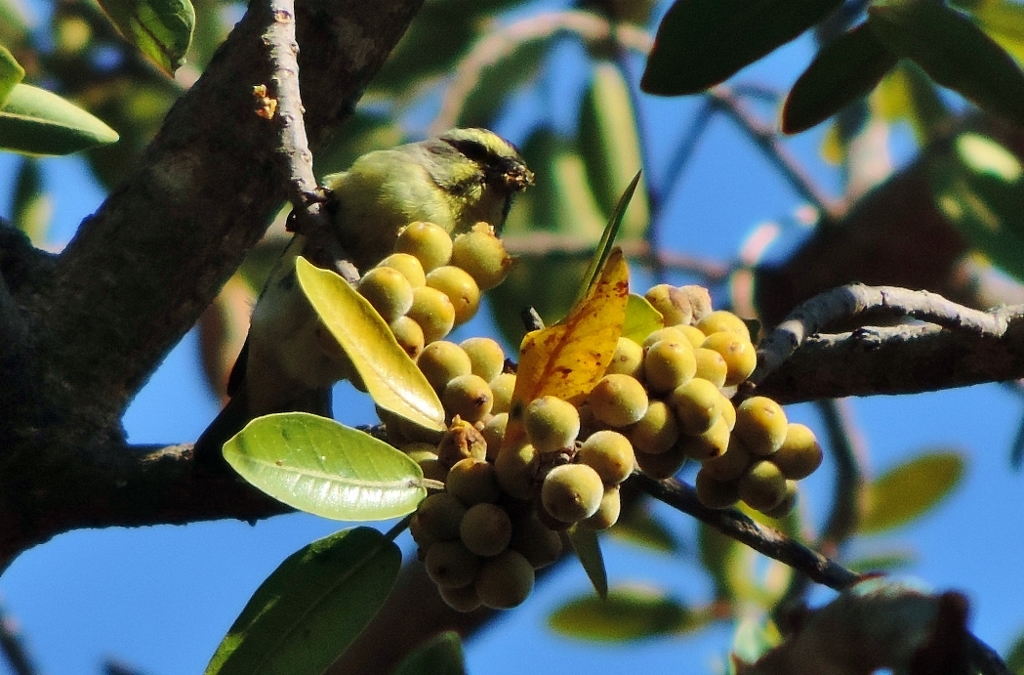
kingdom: Animalia
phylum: Chordata
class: Aves
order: Passeriformes
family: Fringillidae
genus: Crithagra
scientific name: Crithagra mozambica
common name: Yellow-fronted canary
